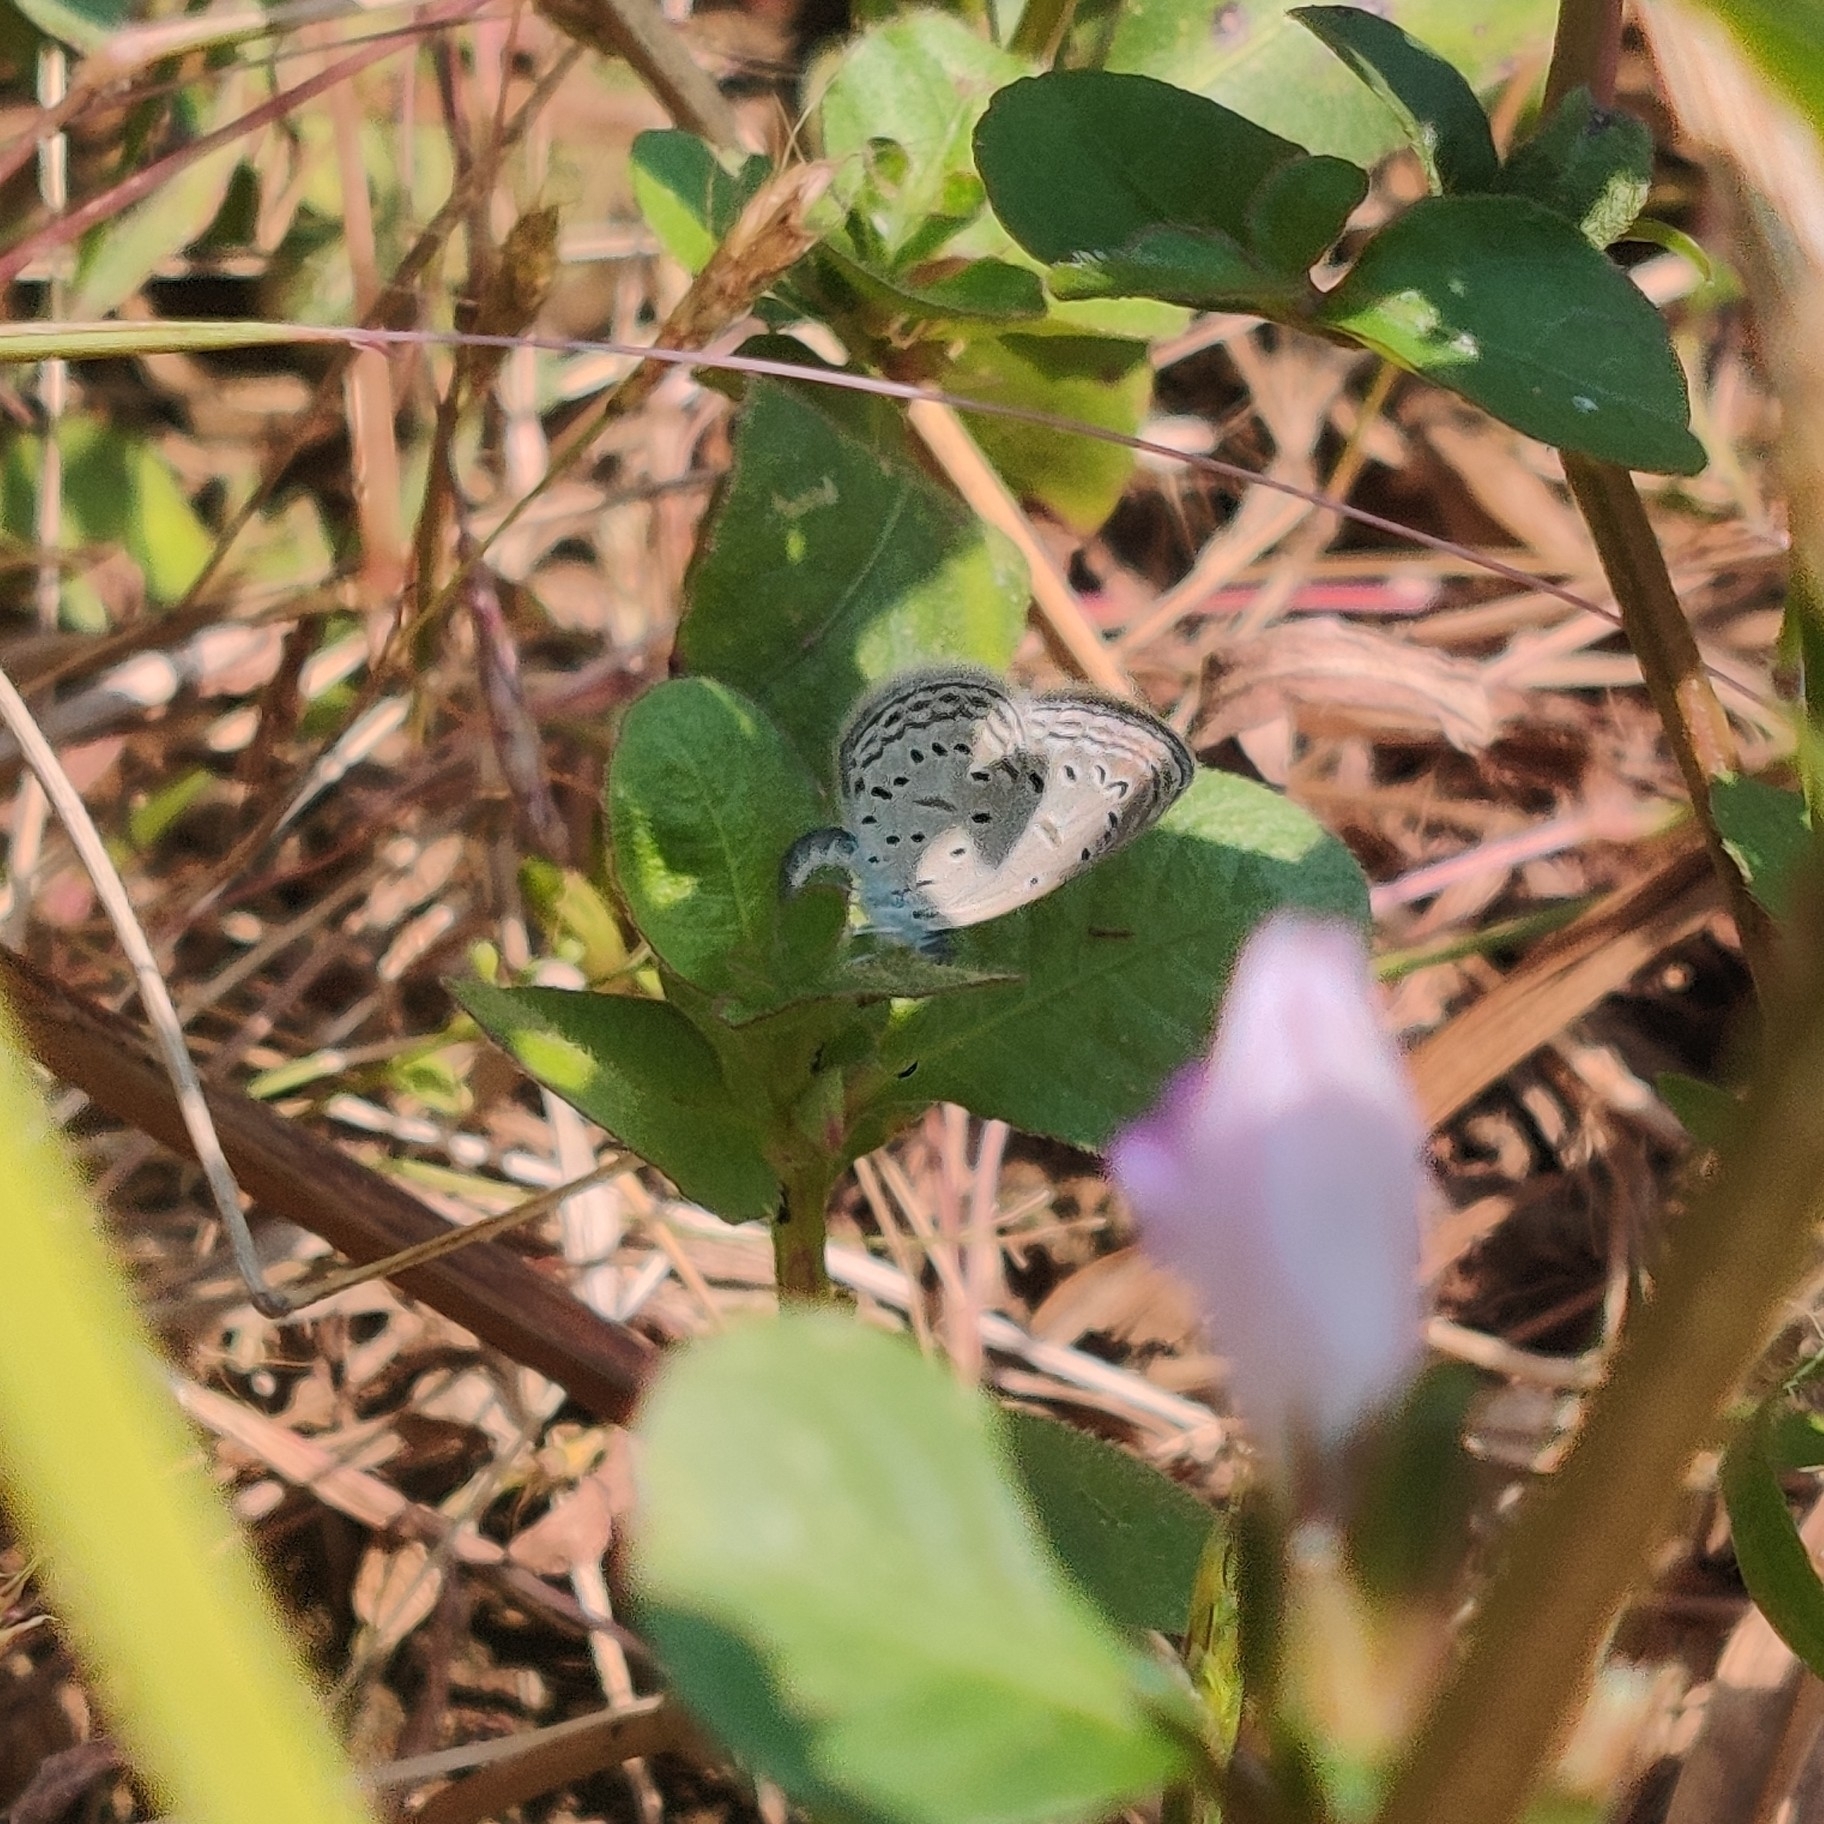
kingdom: Animalia
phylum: Arthropoda
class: Insecta
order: Lepidoptera
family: Lycaenidae
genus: Zizula
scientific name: Zizula hylax
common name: Gaika blue
